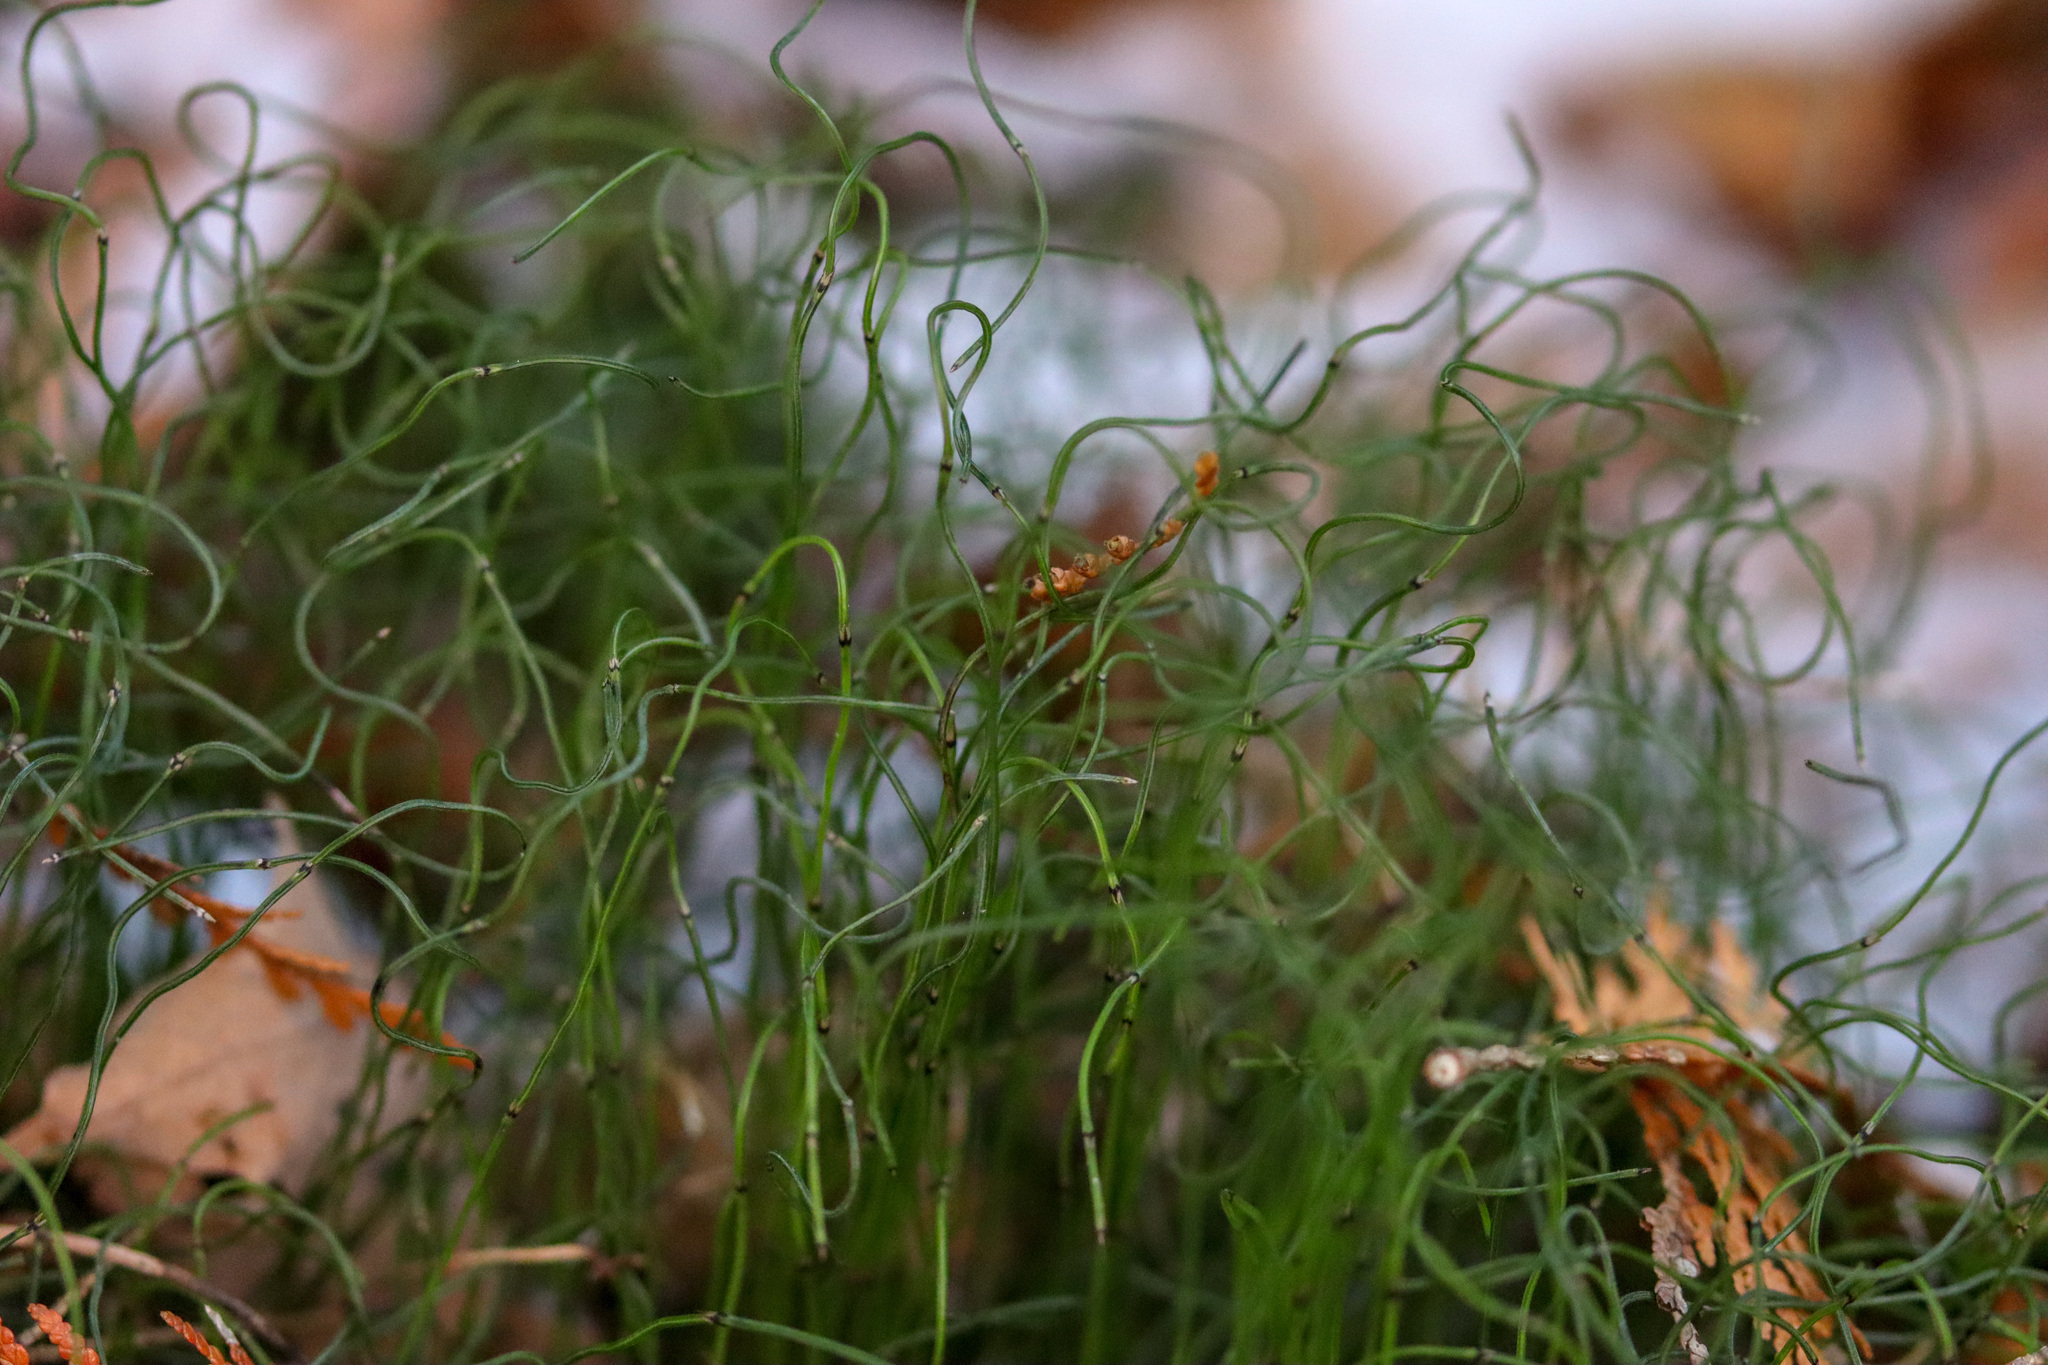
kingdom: Plantae
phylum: Tracheophyta
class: Polypodiopsida
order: Equisetales
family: Equisetaceae
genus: Equisetum
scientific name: Equisetum scirpoides
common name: Delicate horsetail
